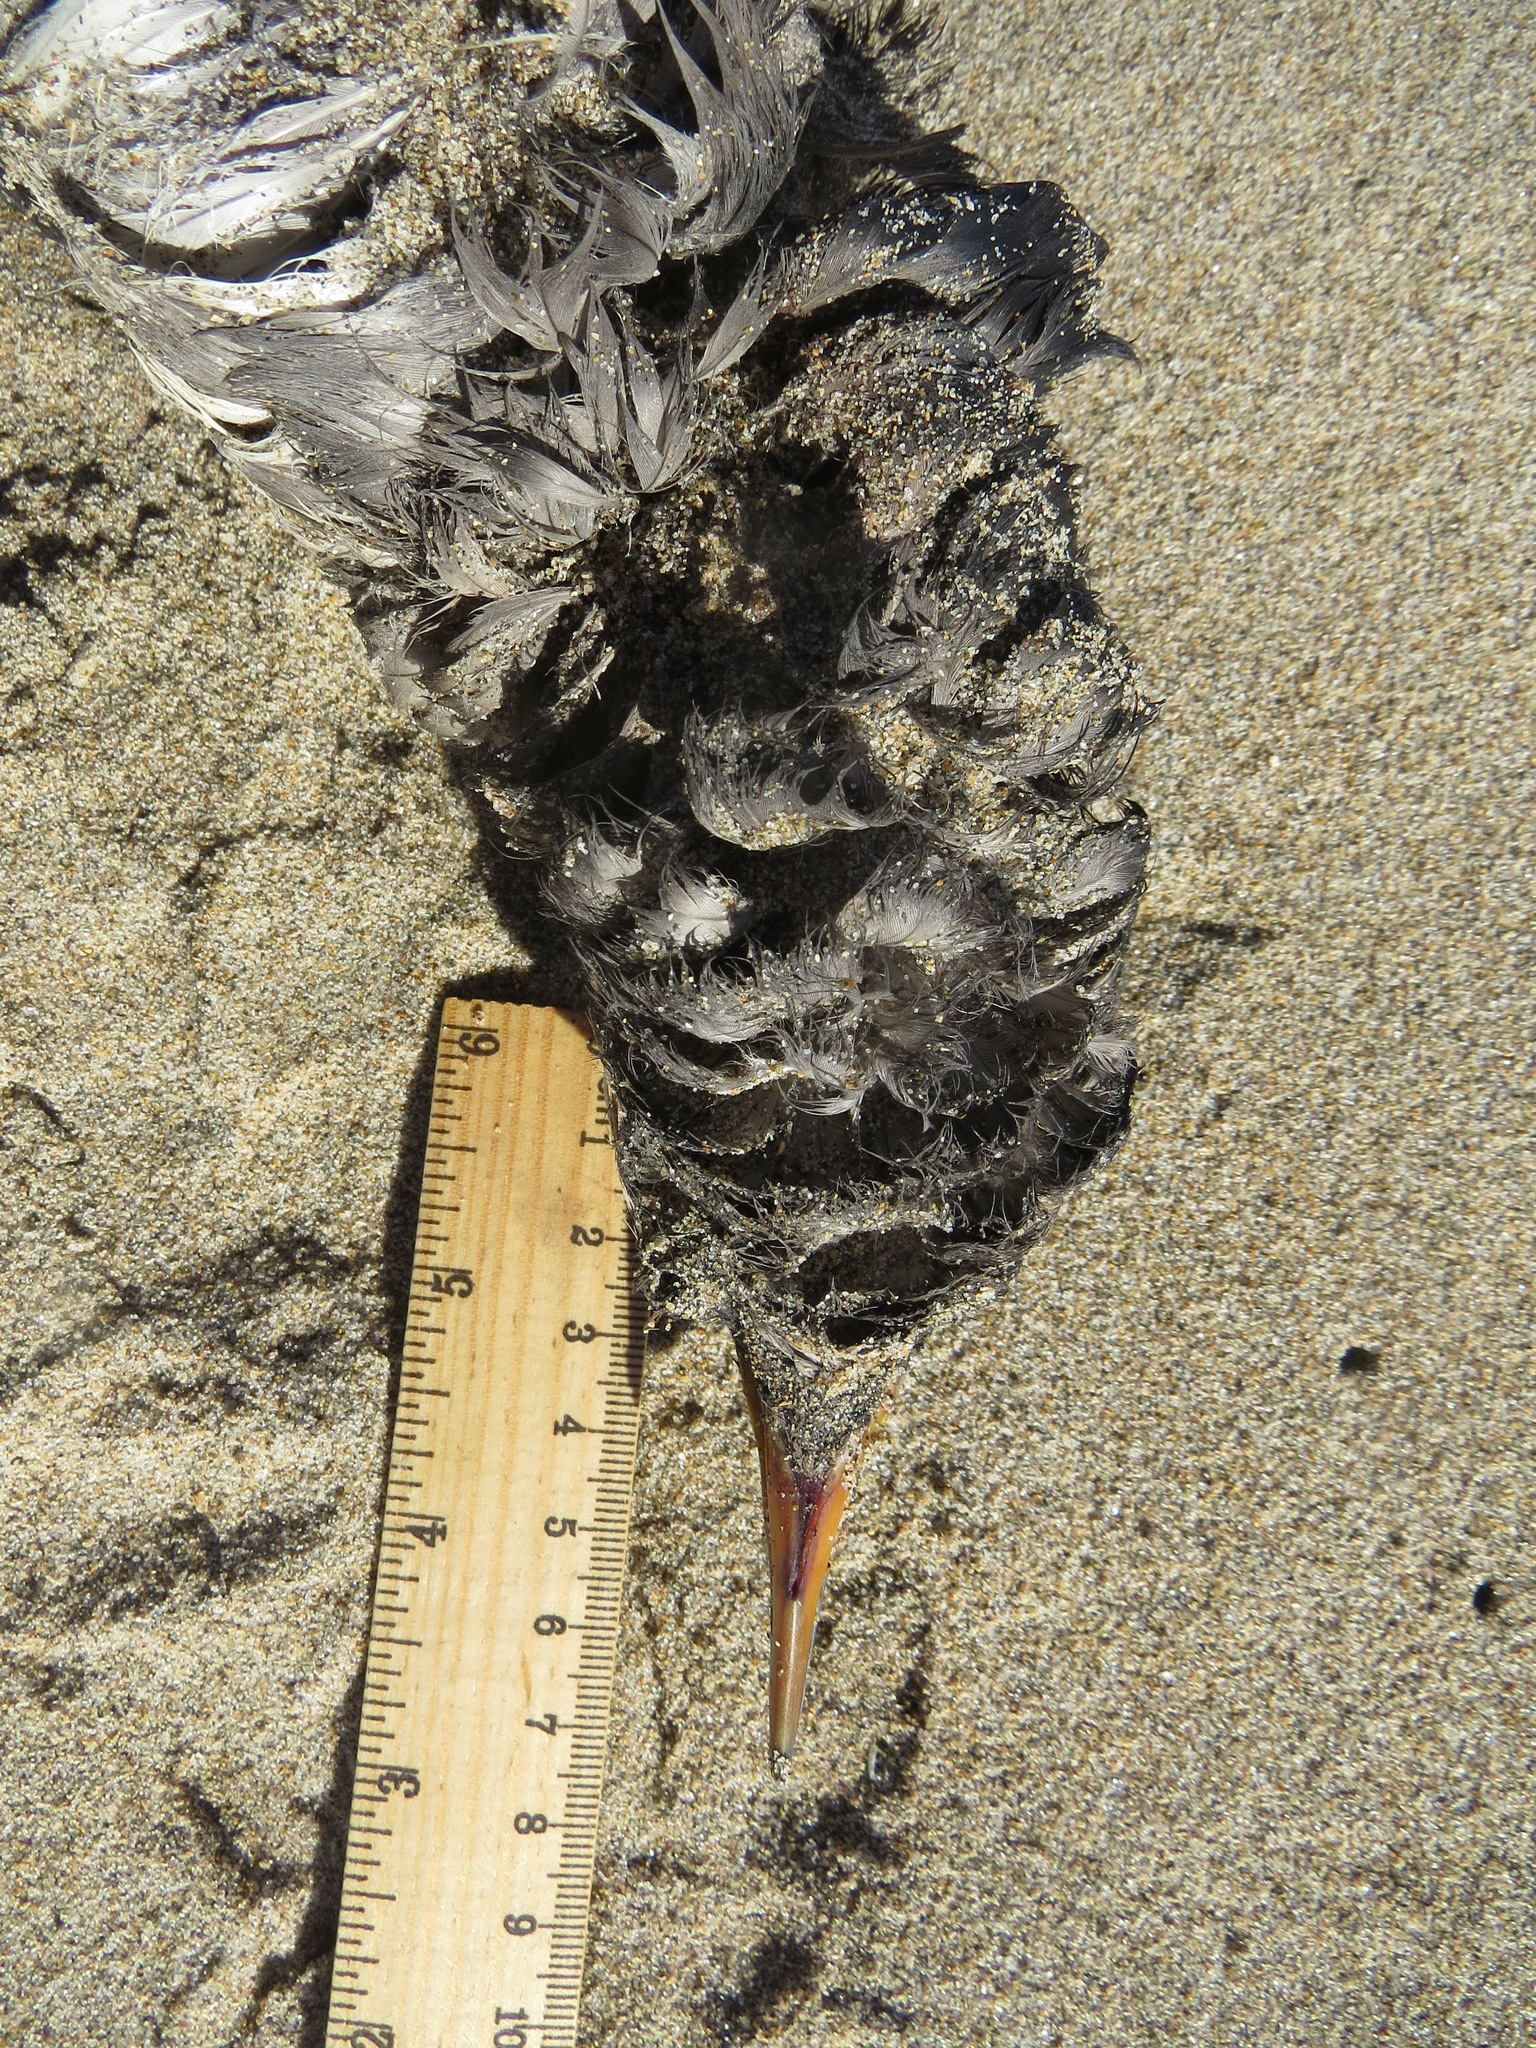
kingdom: Animalia
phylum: Chordata
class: Aves
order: Charadriiformes
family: Alcidae
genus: Cerorhinca
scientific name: Cerorhinca monocerata
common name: Rhinoceros auklet
